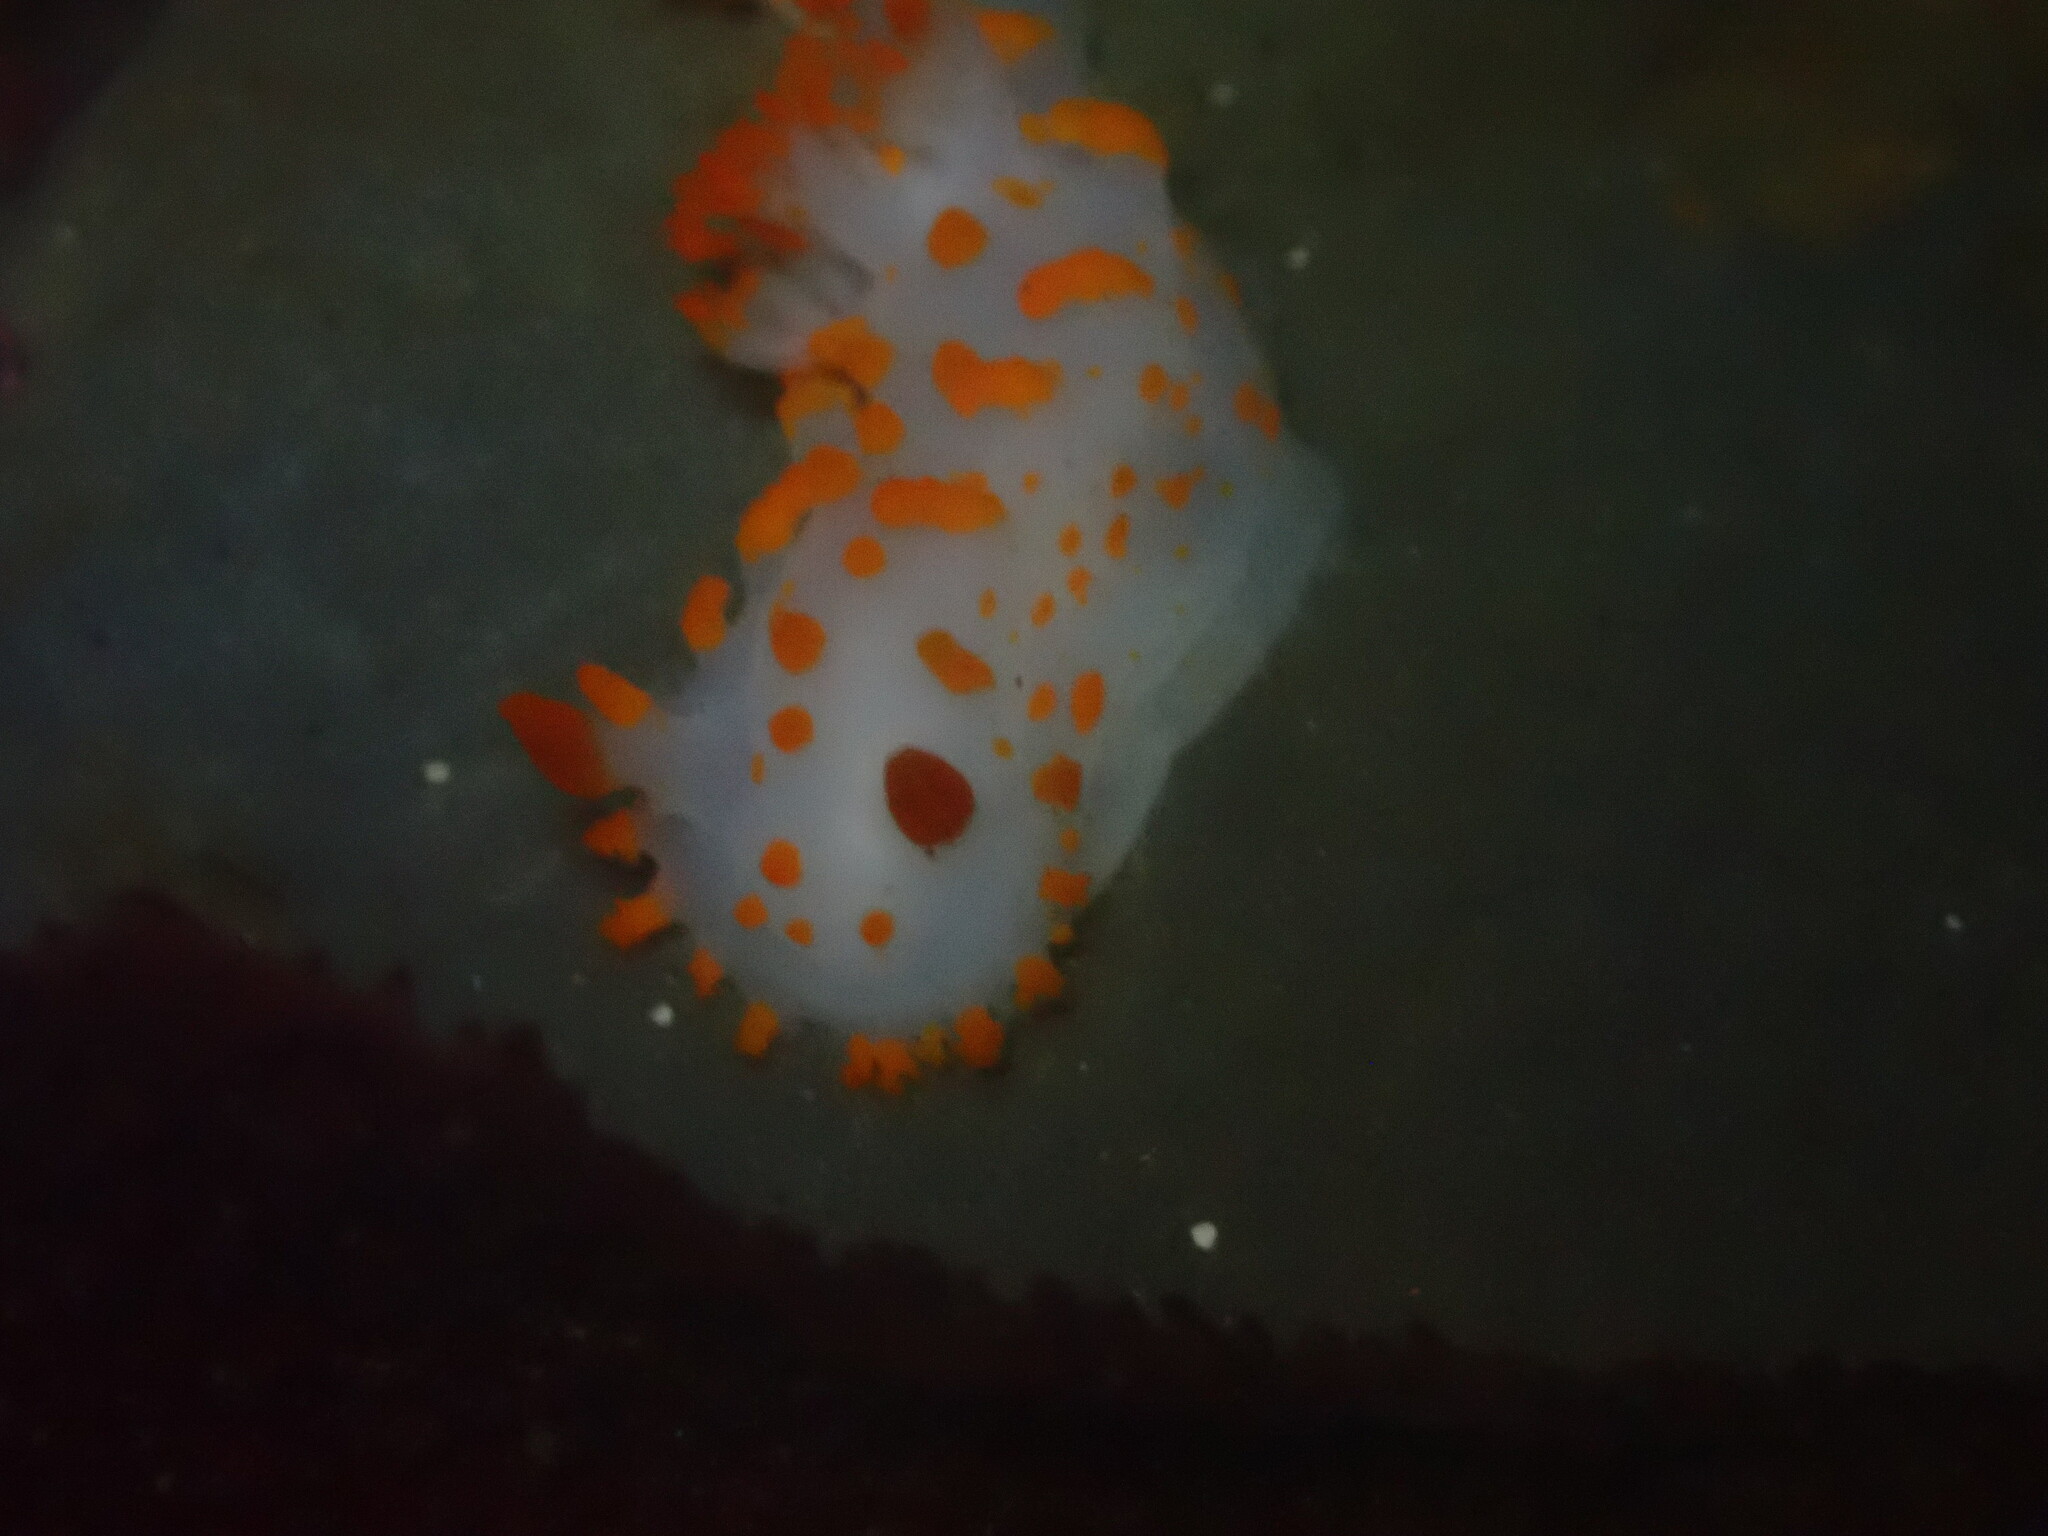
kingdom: Animalia
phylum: Mollusca
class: Gastropoda
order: Nudibranchia
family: Polyceridae
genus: Triopha
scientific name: Triopha catalinae
